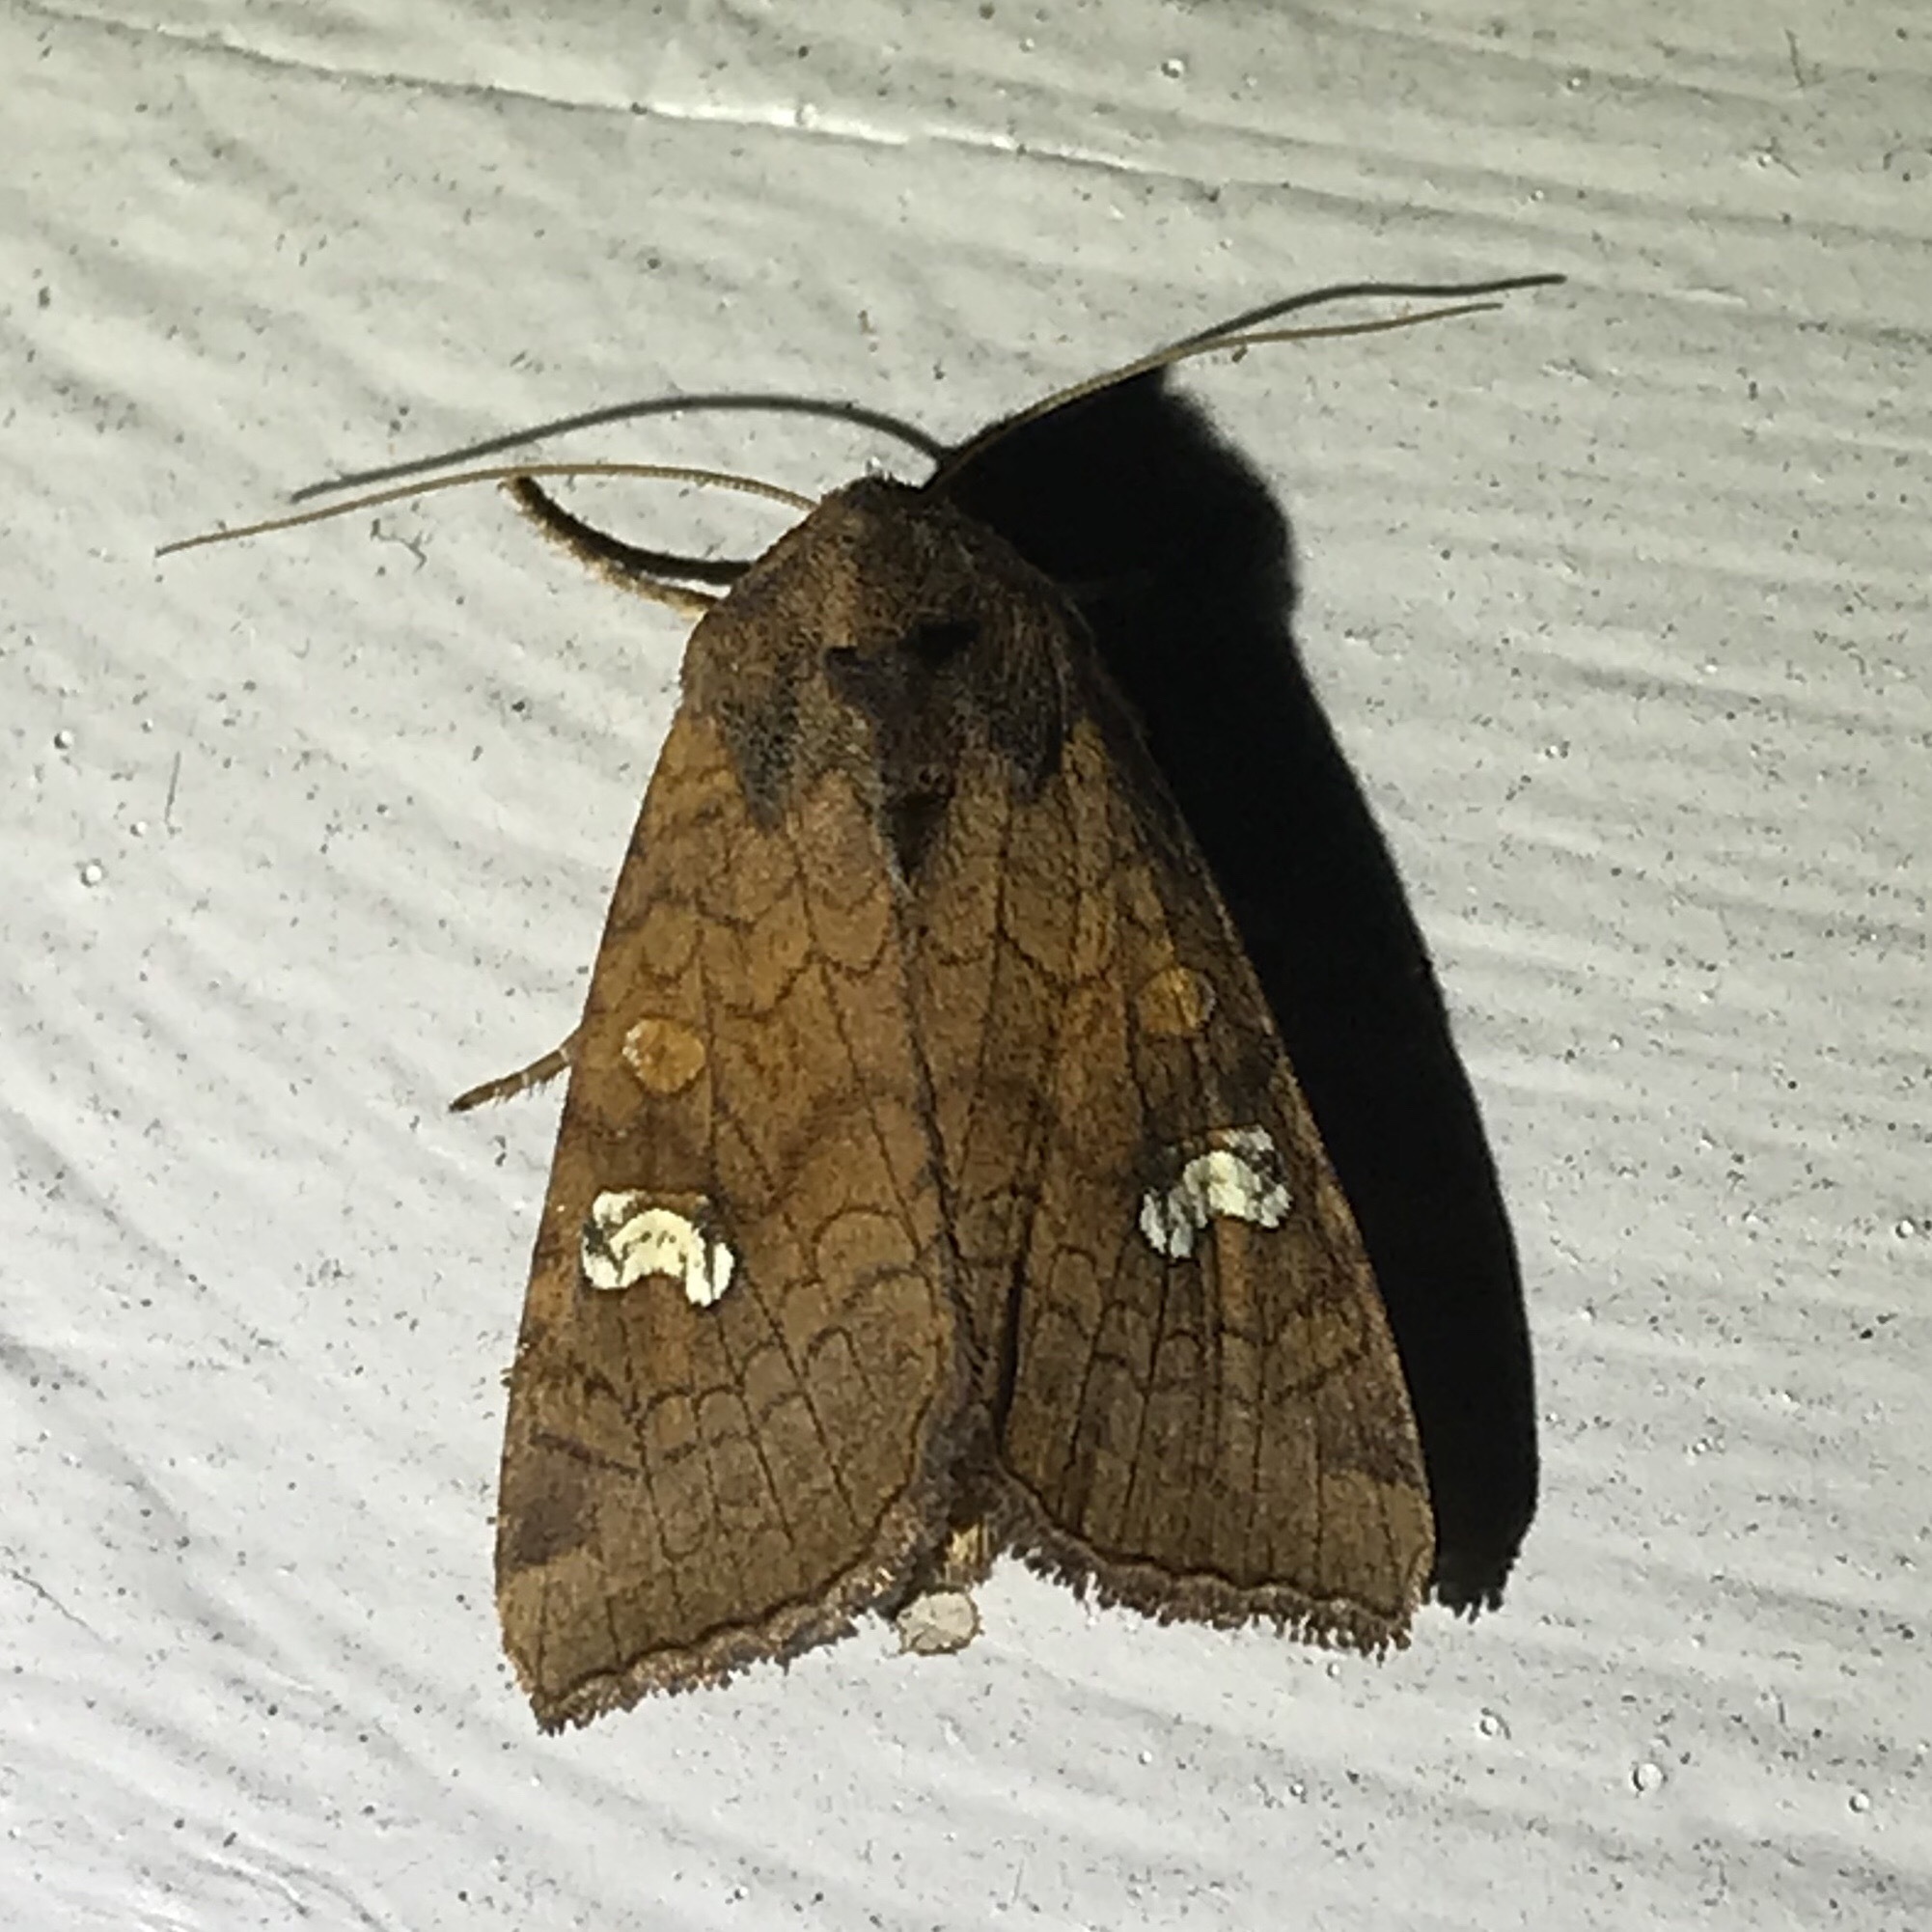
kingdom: Animalia
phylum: Arthropoda
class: Insecta
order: Lepidoptera
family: Noctuidae
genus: Amphipoea
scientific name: Amphipoea
